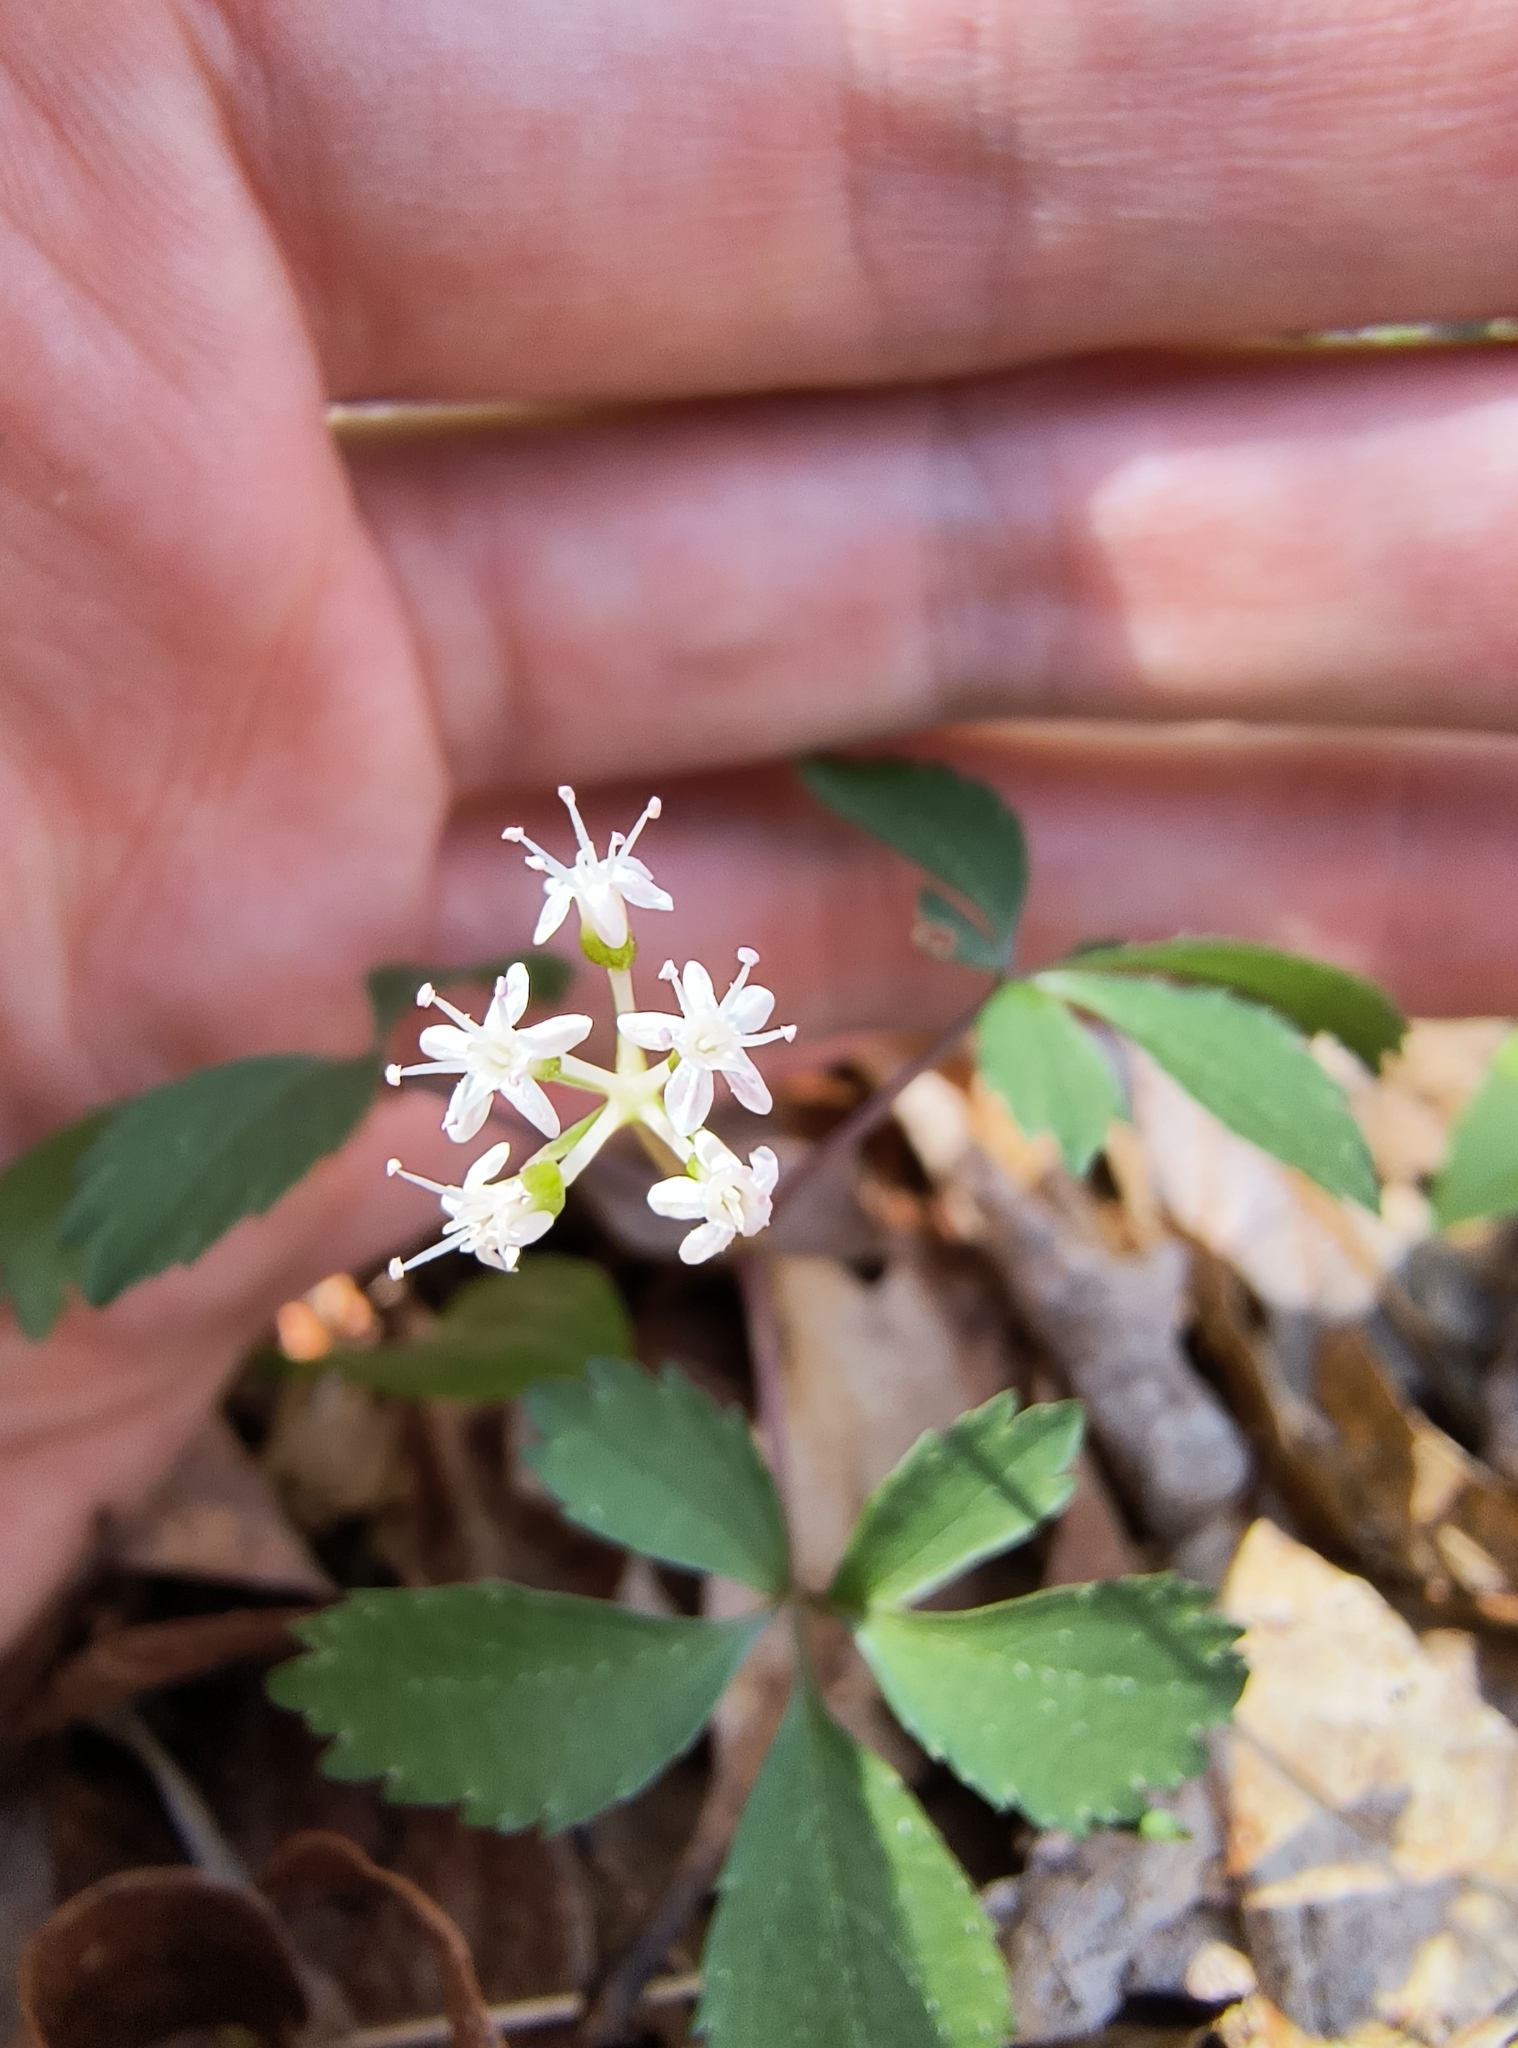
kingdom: Plantae
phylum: Tracheophyta
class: Magnoliopsida
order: Apiales
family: Araliaceae
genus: Panax
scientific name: Panax trifolius
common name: Dwarf ginseng
